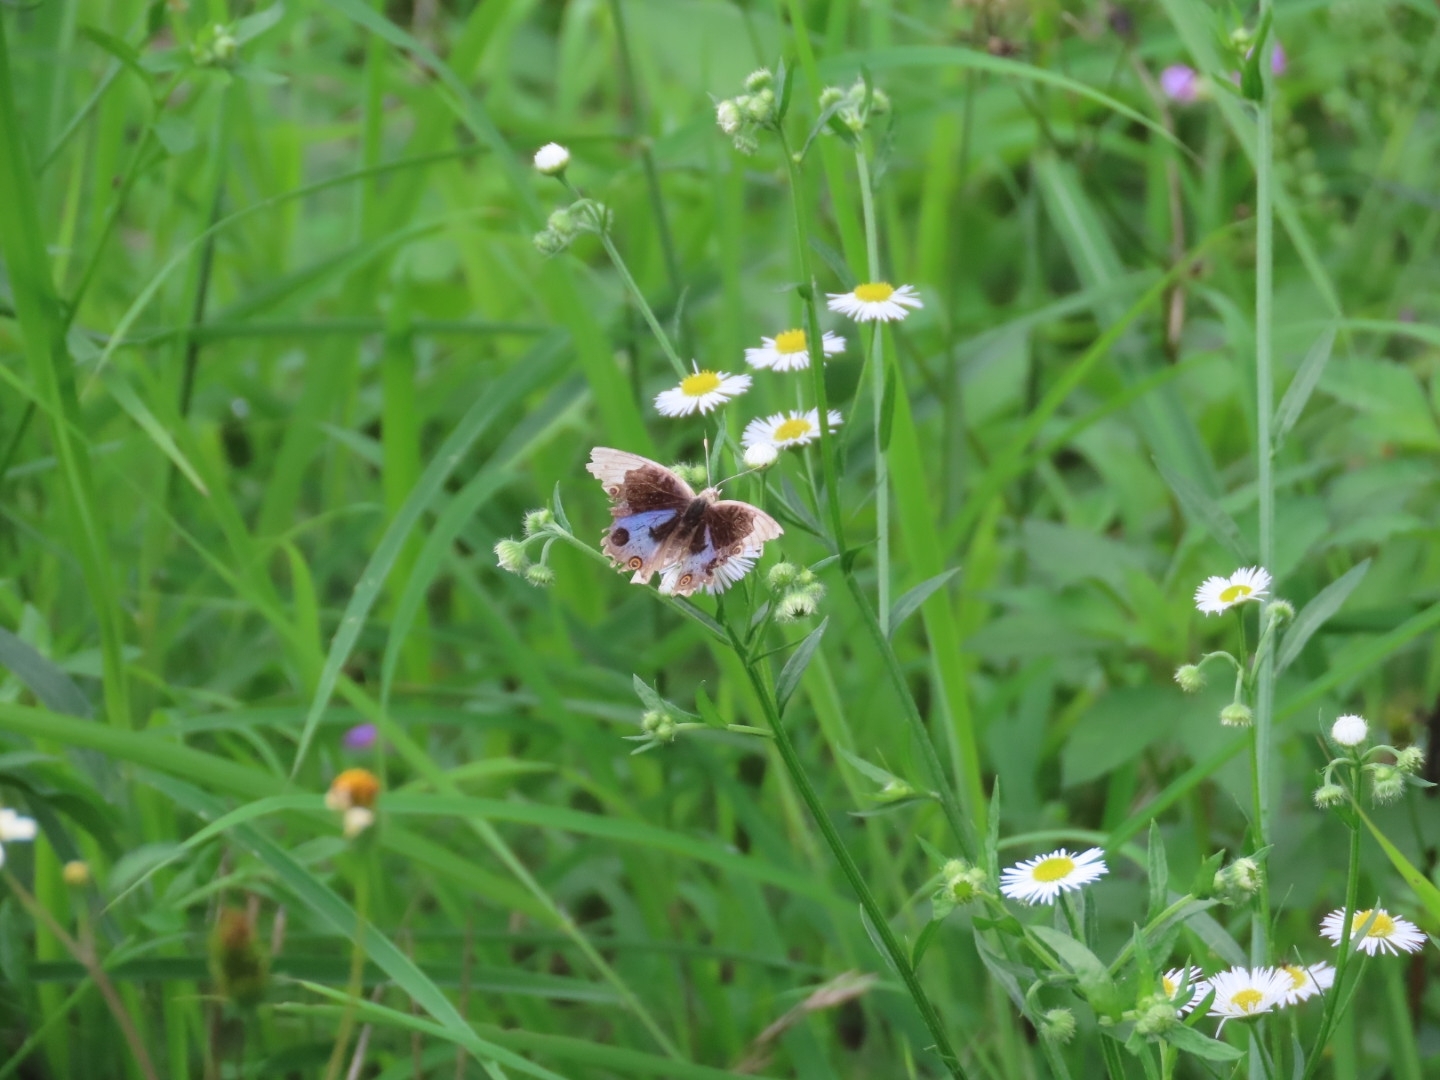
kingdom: Animalia
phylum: Arthropoda
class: Insecta
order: Lepidoptera
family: Nymphalidae
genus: Junonia
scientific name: Junonia orithya
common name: Blue pansy
